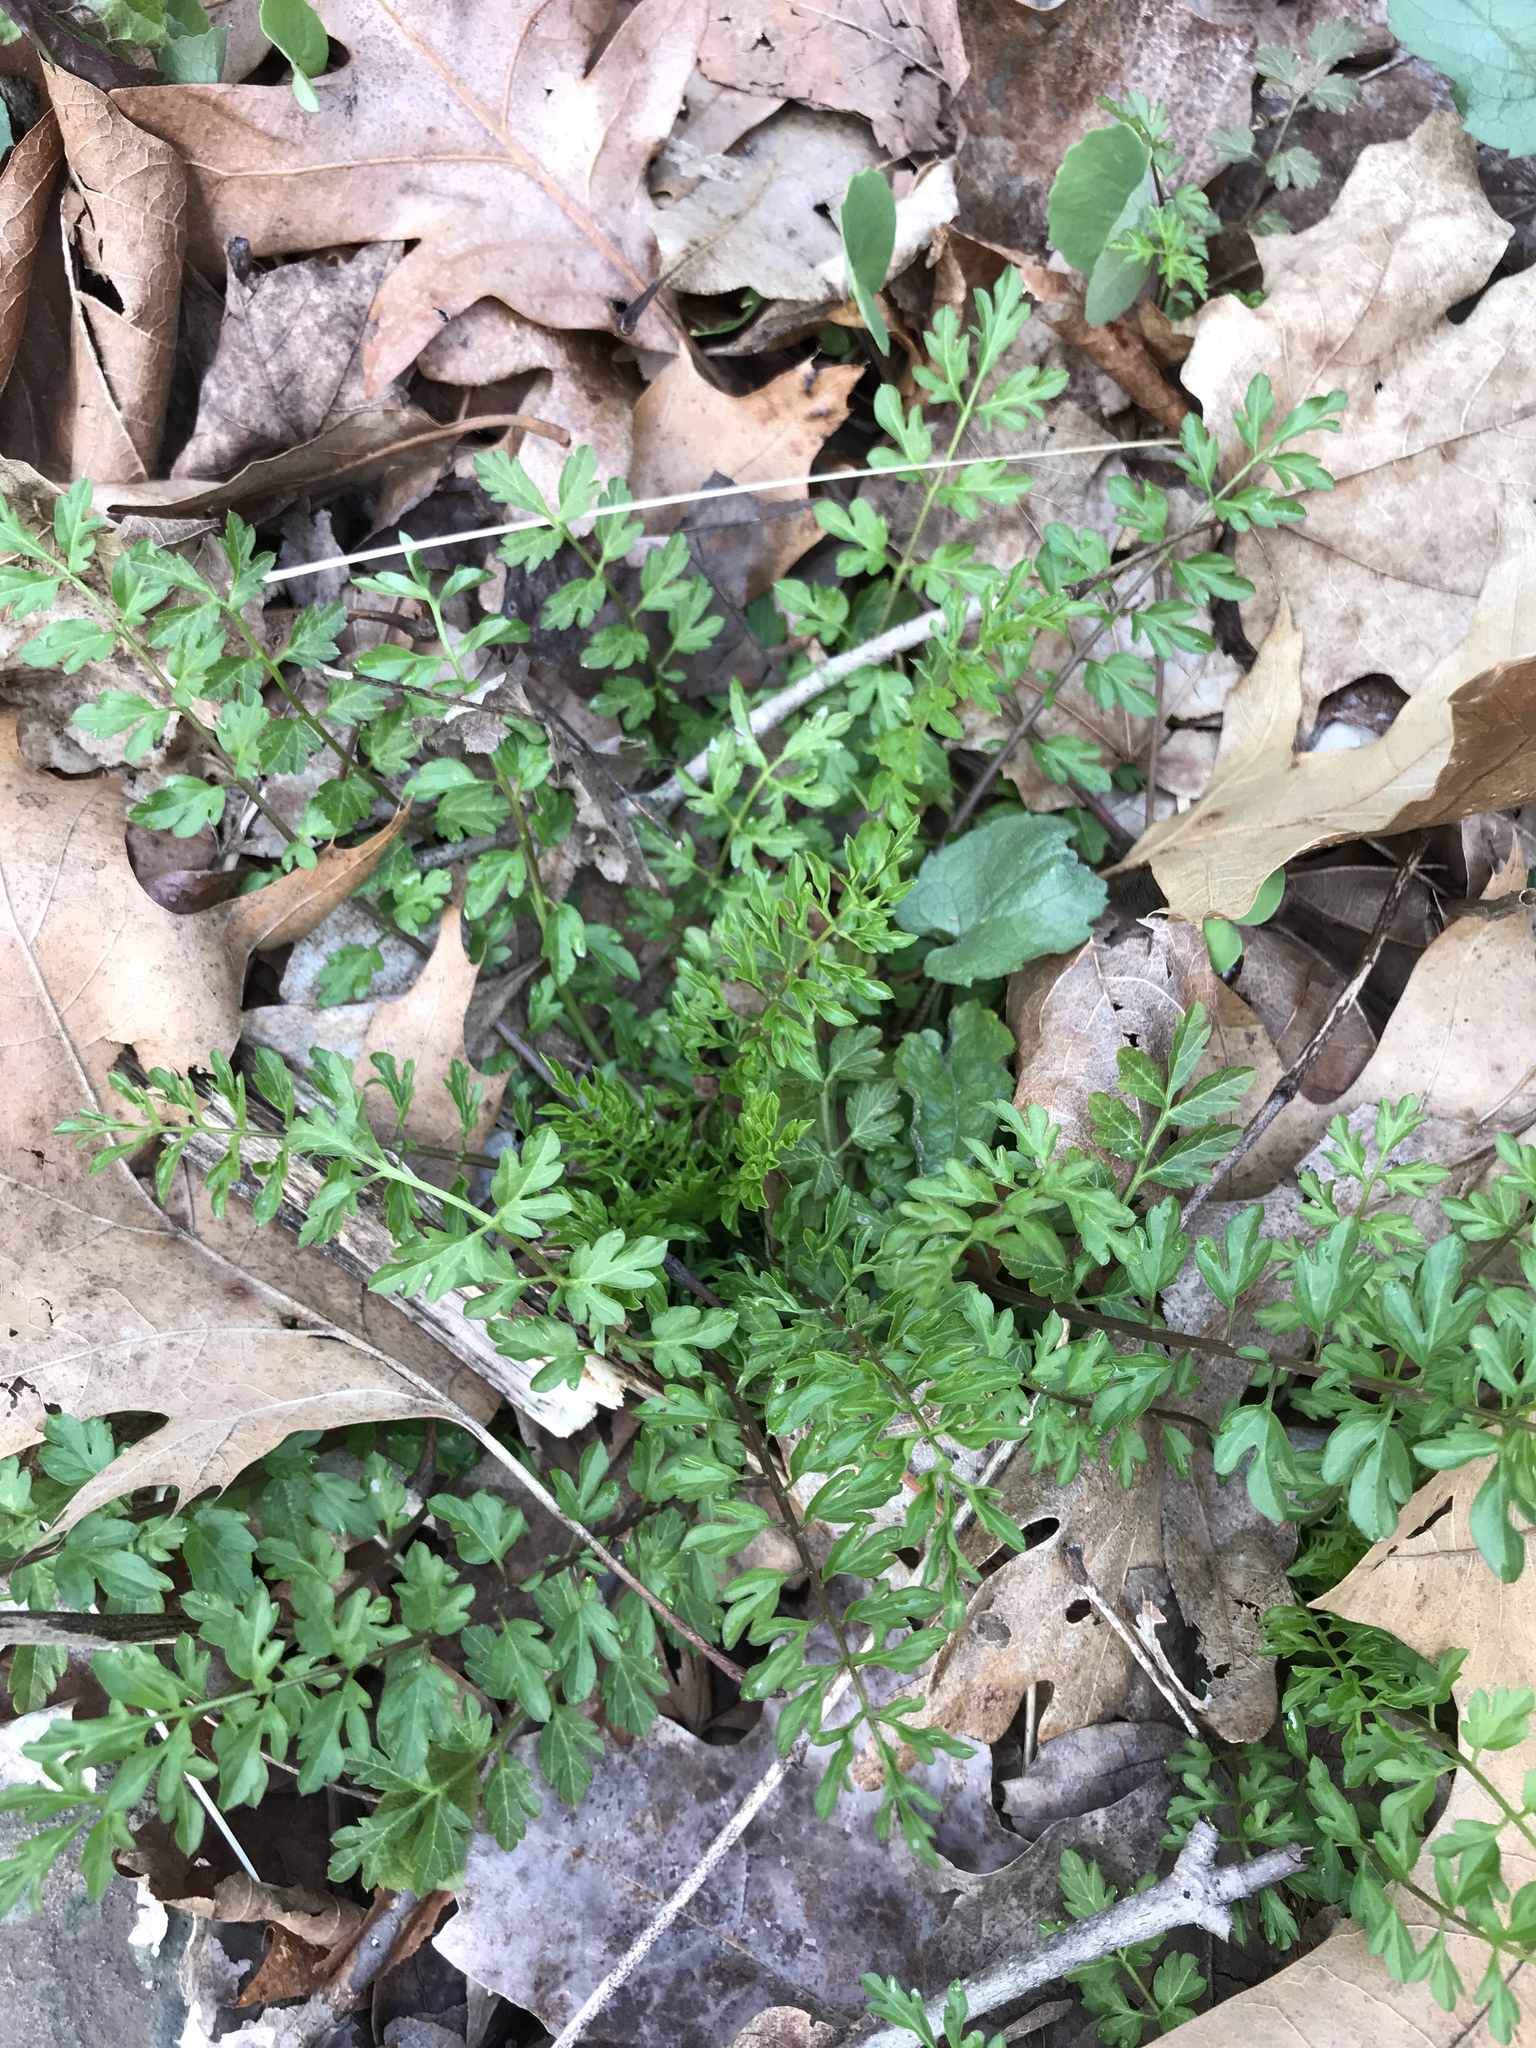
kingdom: Plantae
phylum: Tracheophyta
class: Magnoliopsida
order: Brassicales
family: Brassicaceae
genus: Cardamine
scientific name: Cardamine impatiens
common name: Narrow-leaved bitter-cress
